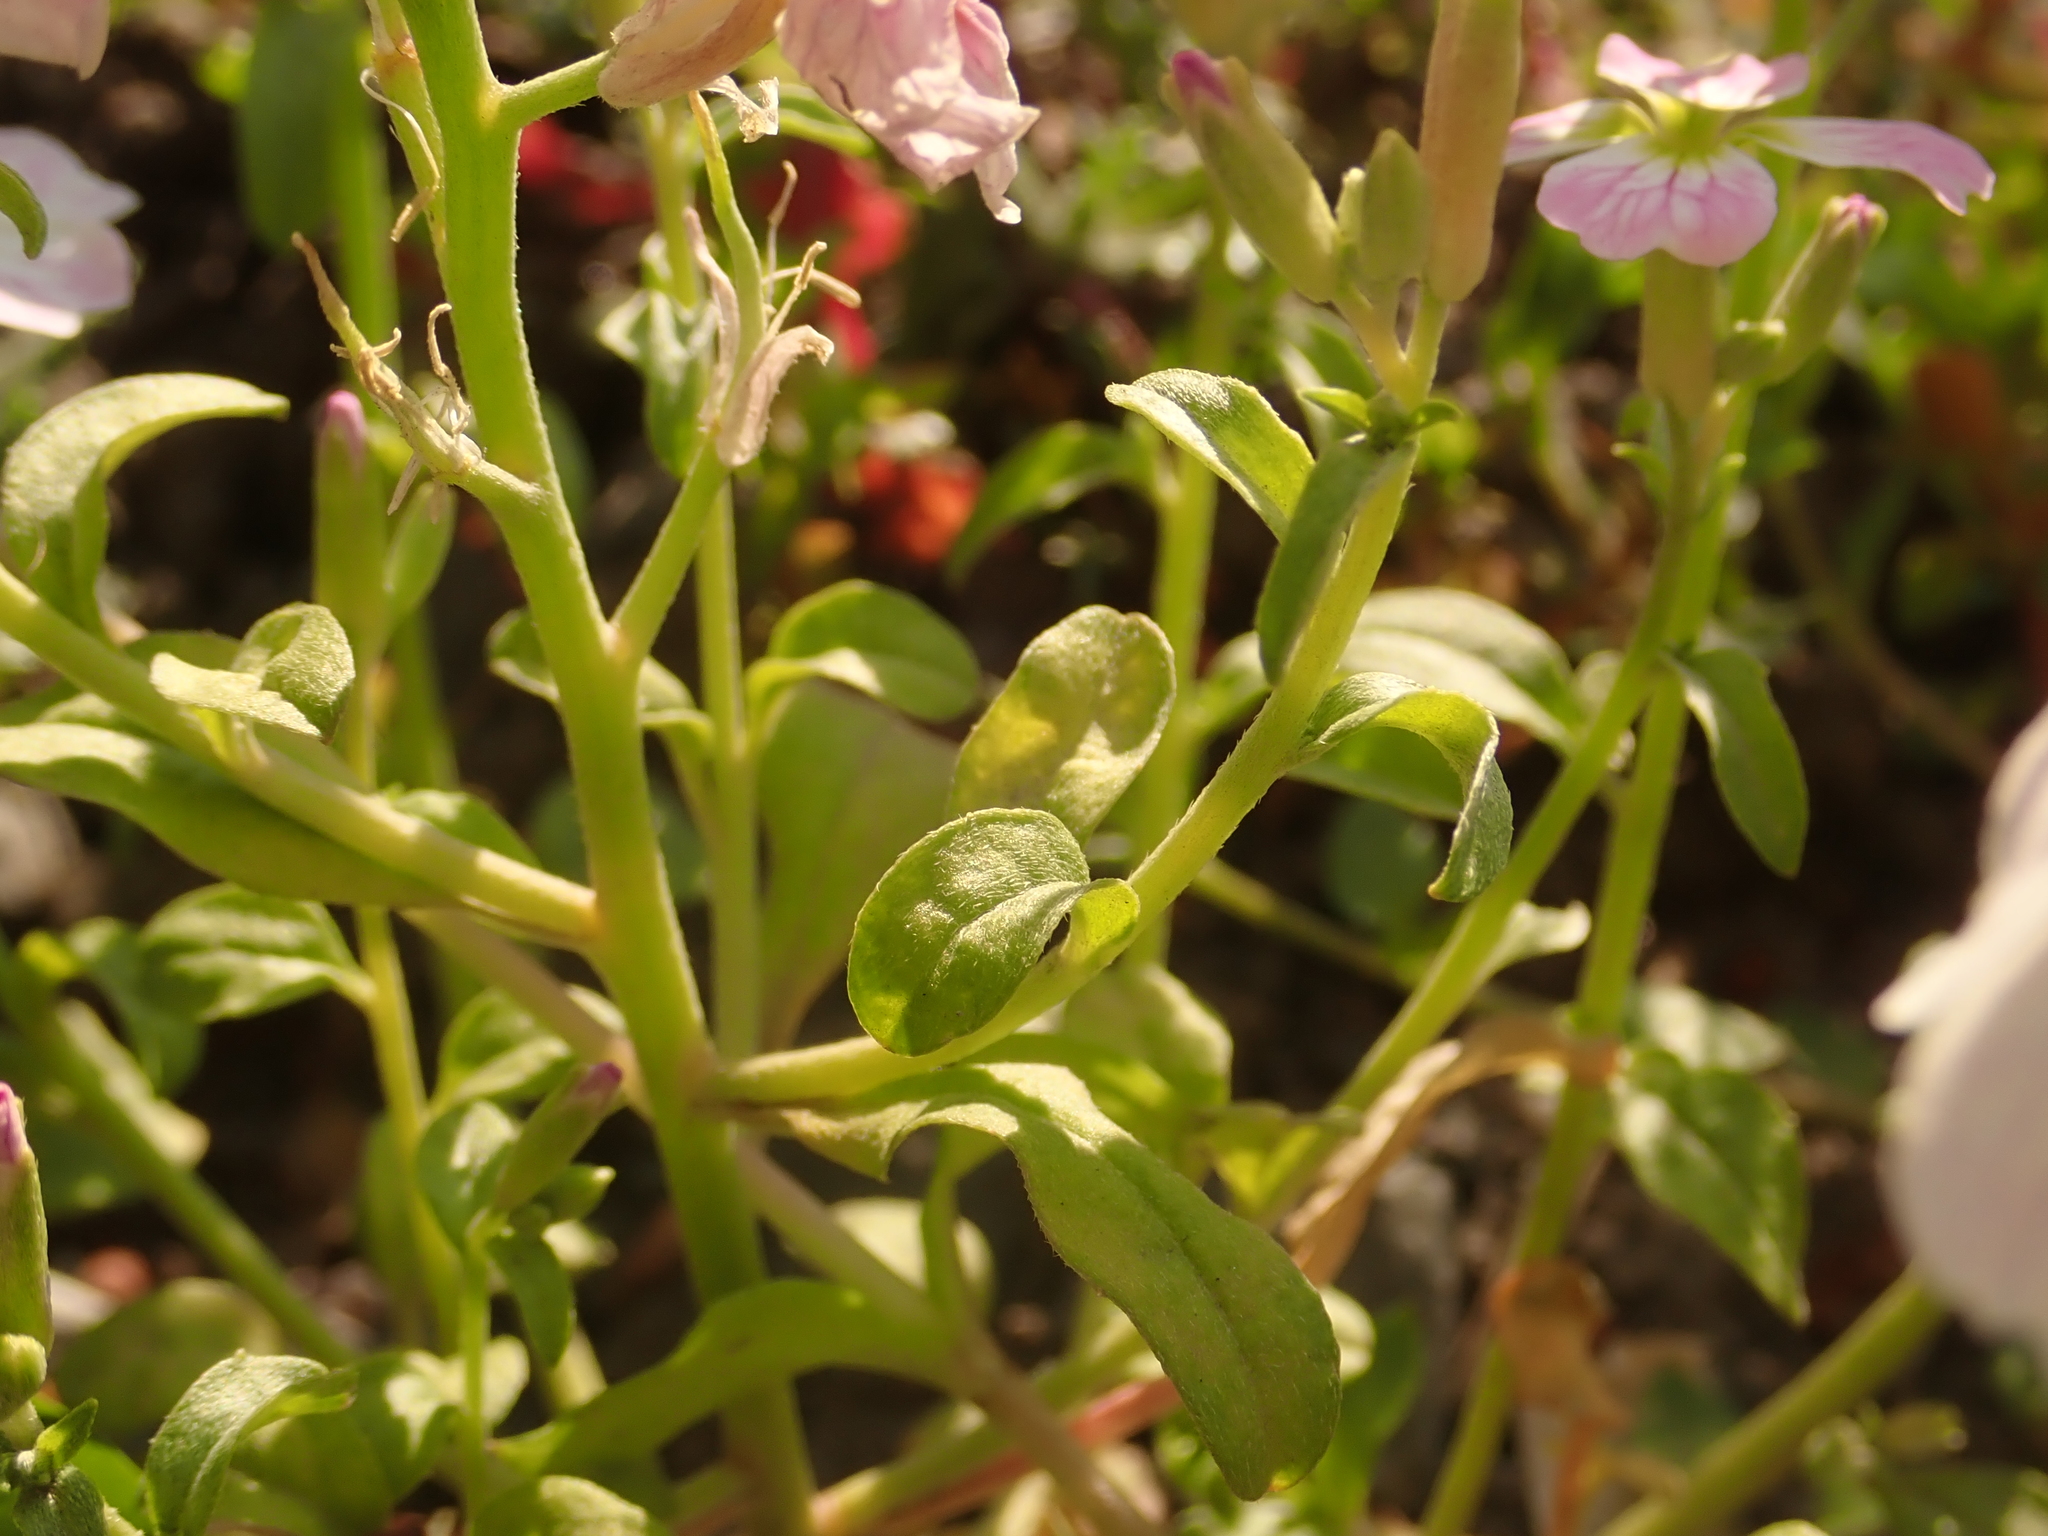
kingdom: Plantae
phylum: Tracheophyta
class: Magnoliopsida
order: Brassicales
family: Brassicaceae
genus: Malcolmia
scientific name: Malcolmia maritima
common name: Virginia stock
